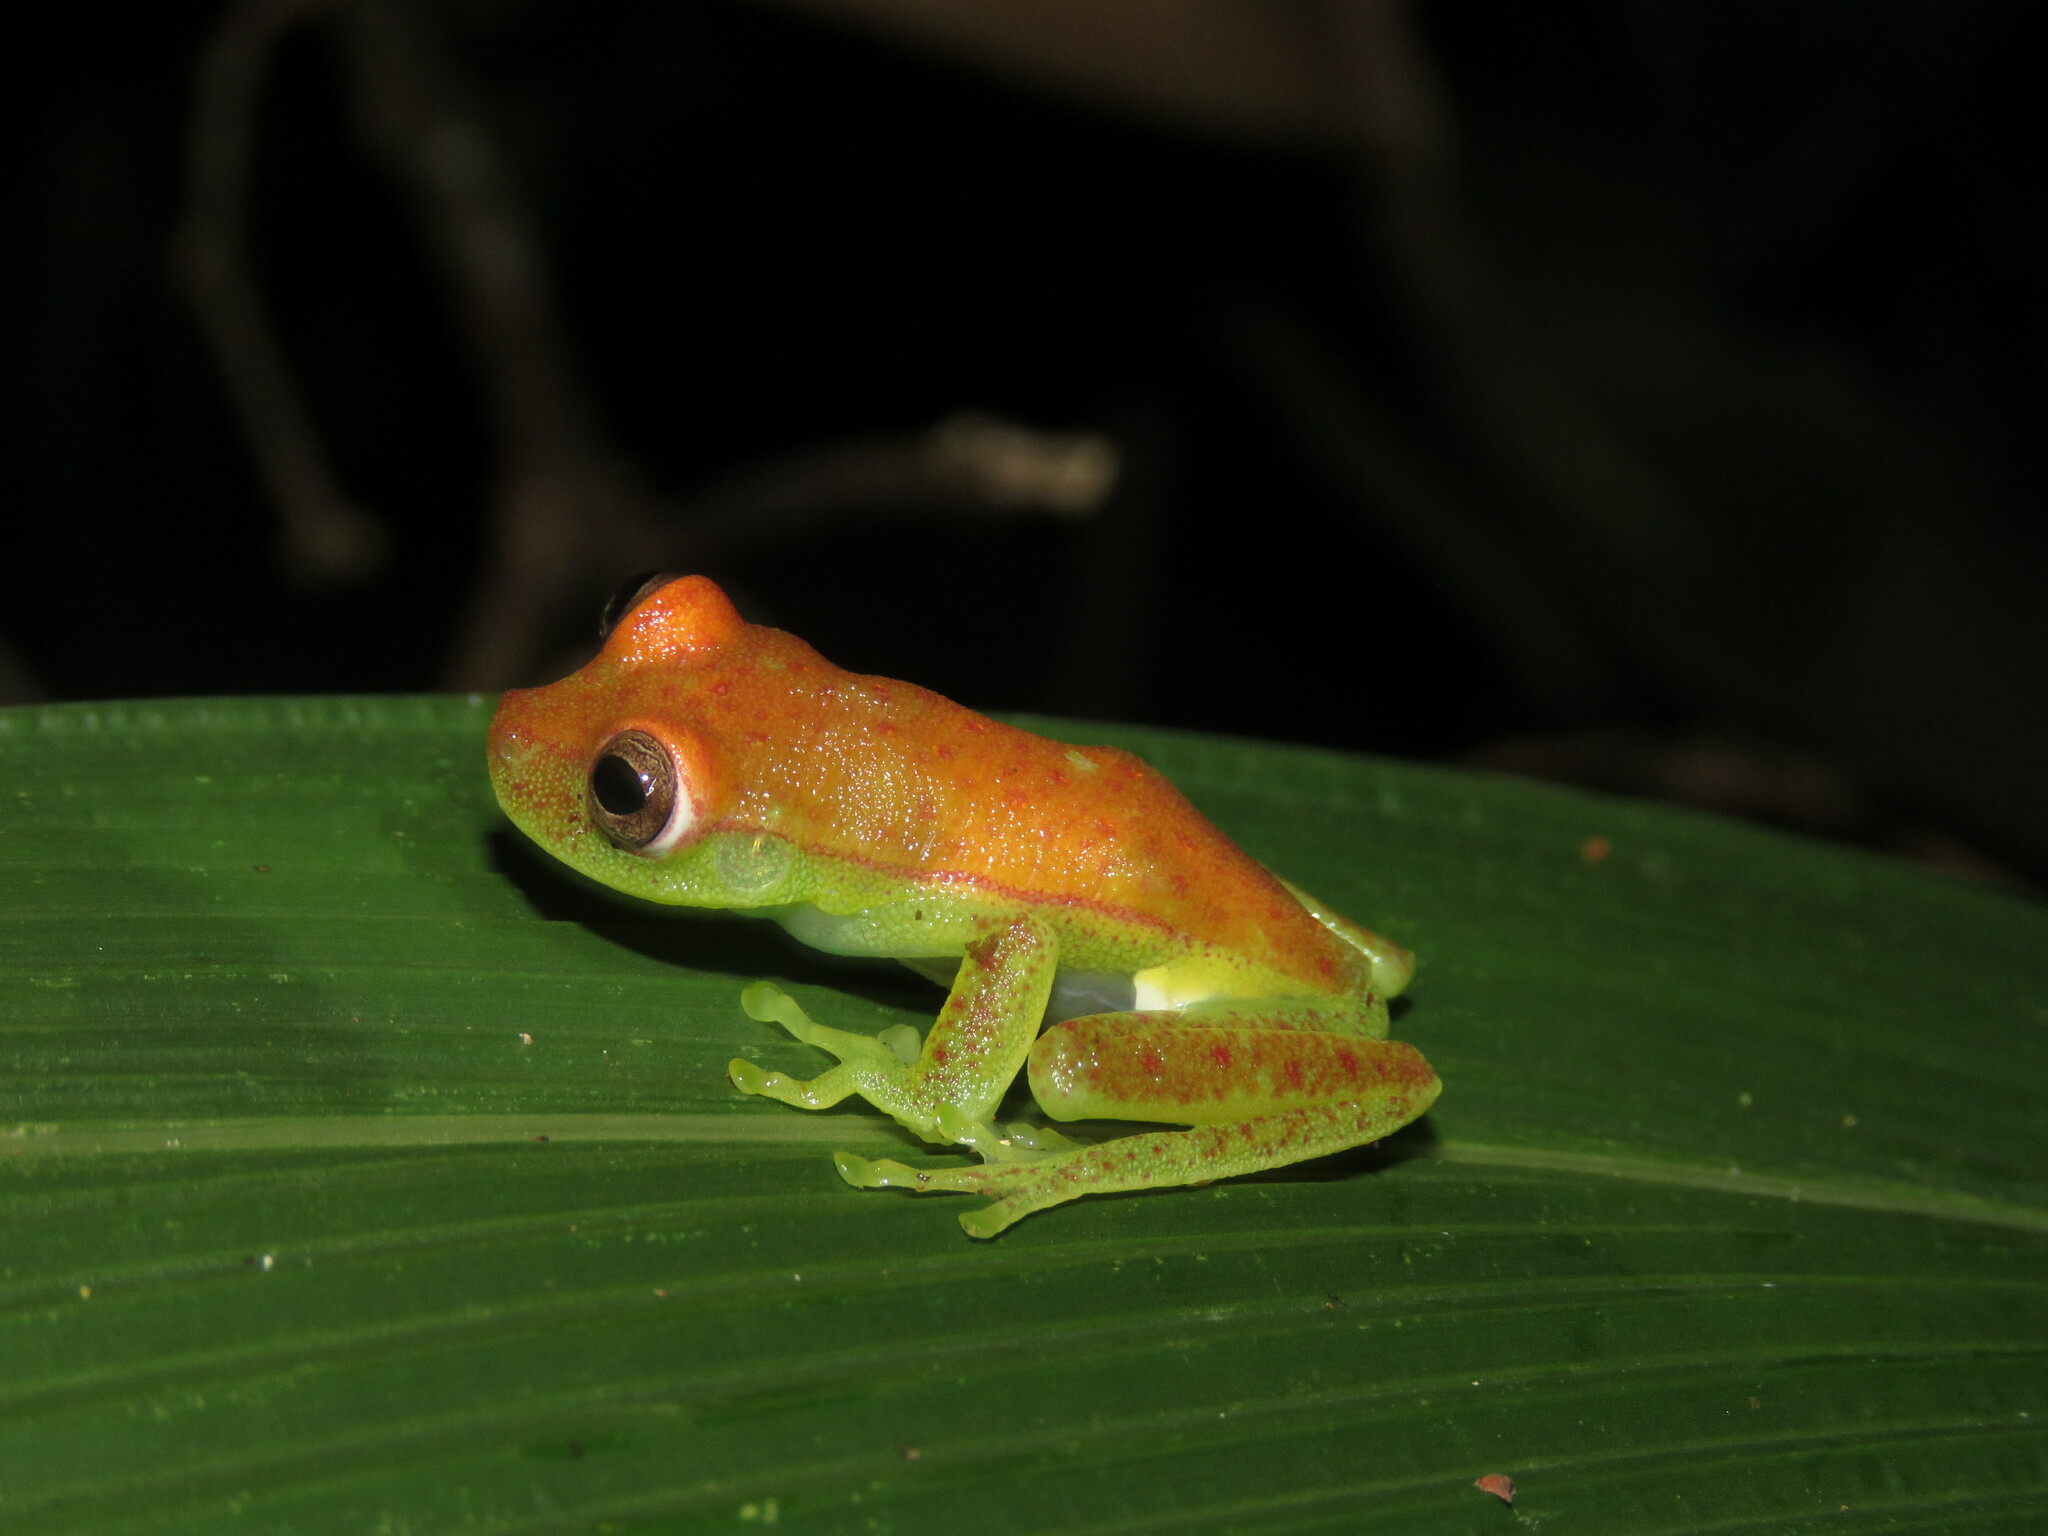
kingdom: Animalia
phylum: Chordata
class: Amphibia
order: Anura
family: Hylidae
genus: Boana
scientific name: Boana punctata
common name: Polka-dot treefrog
